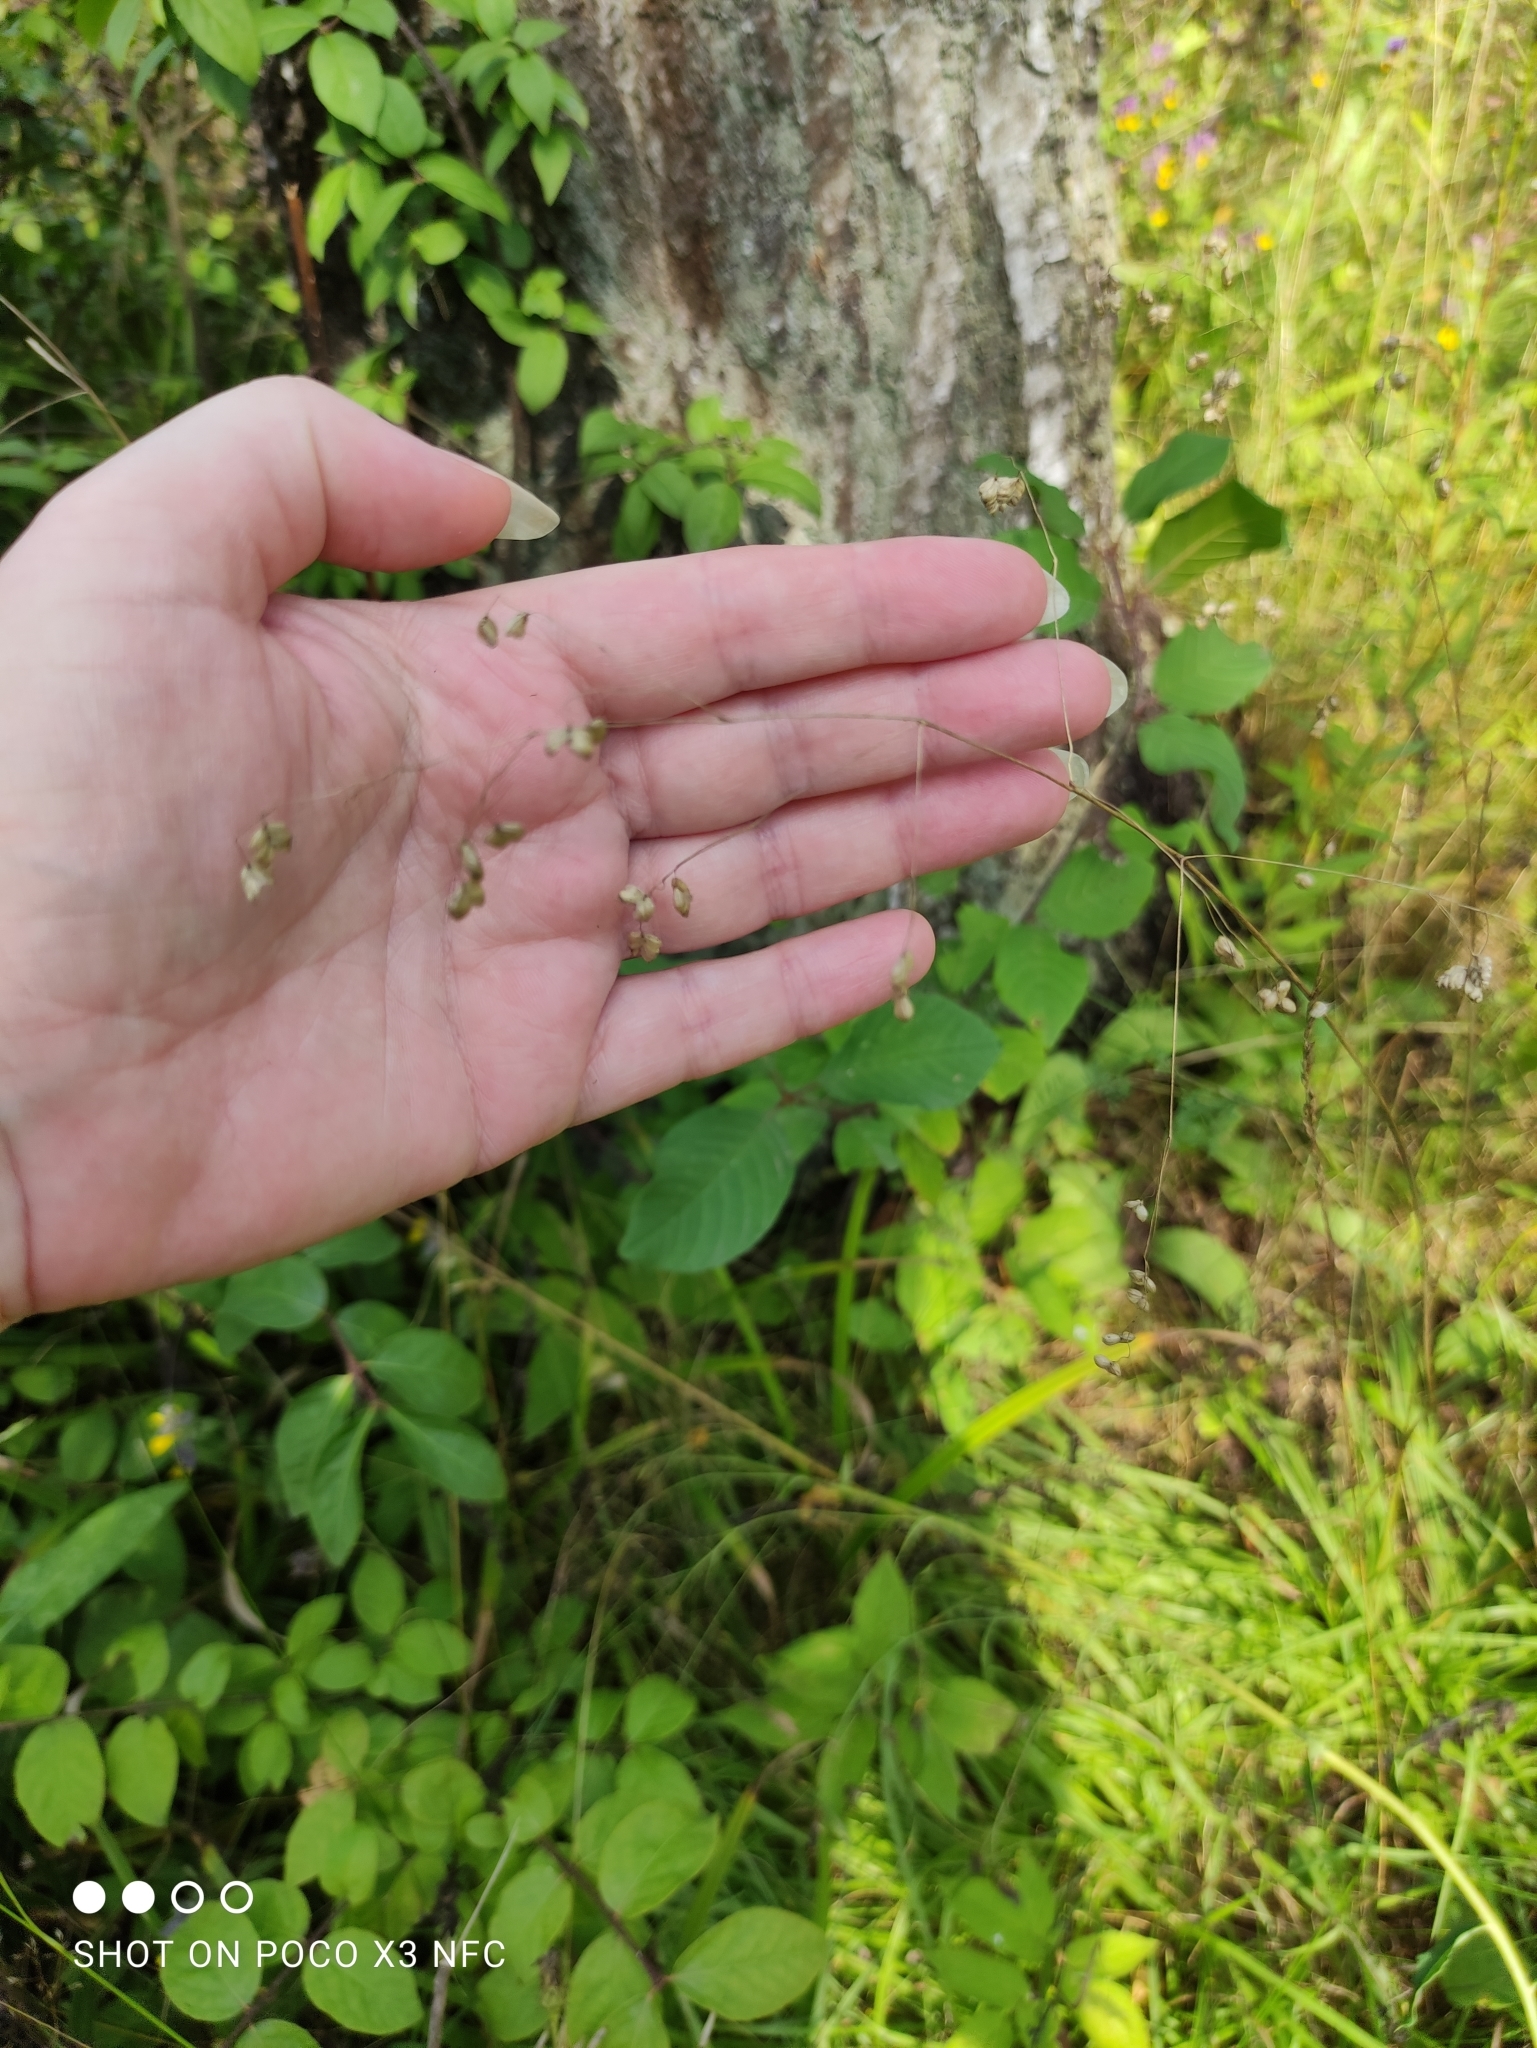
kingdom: Plantae
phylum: Tracheophyta
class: Liliopsida
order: Poales
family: Poaceae
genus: Briza
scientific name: Briza media
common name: Quaking grass
